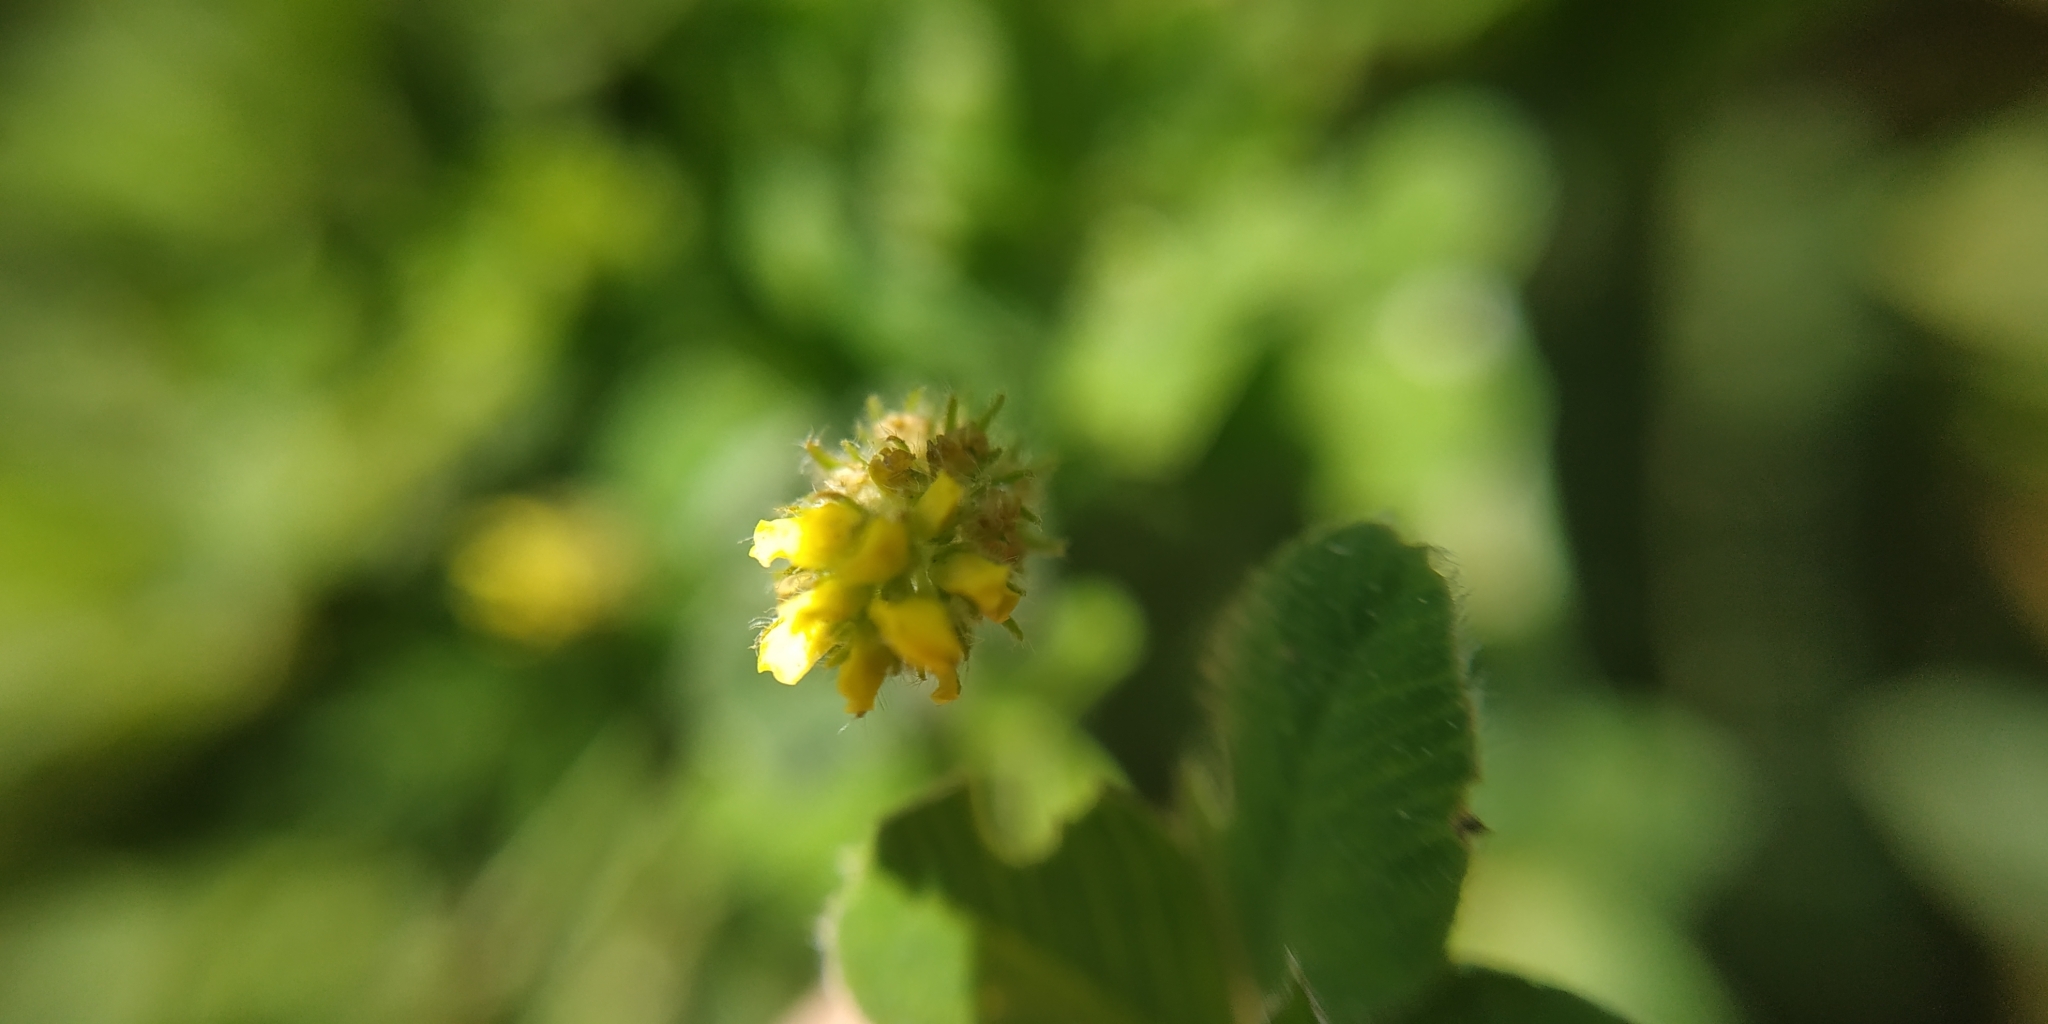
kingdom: Plantae
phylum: Tracheophyta
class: Magnoliopsida
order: Fabales
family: Fabaceae
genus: Medicago
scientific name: Medicago lupulina
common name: Black medick
